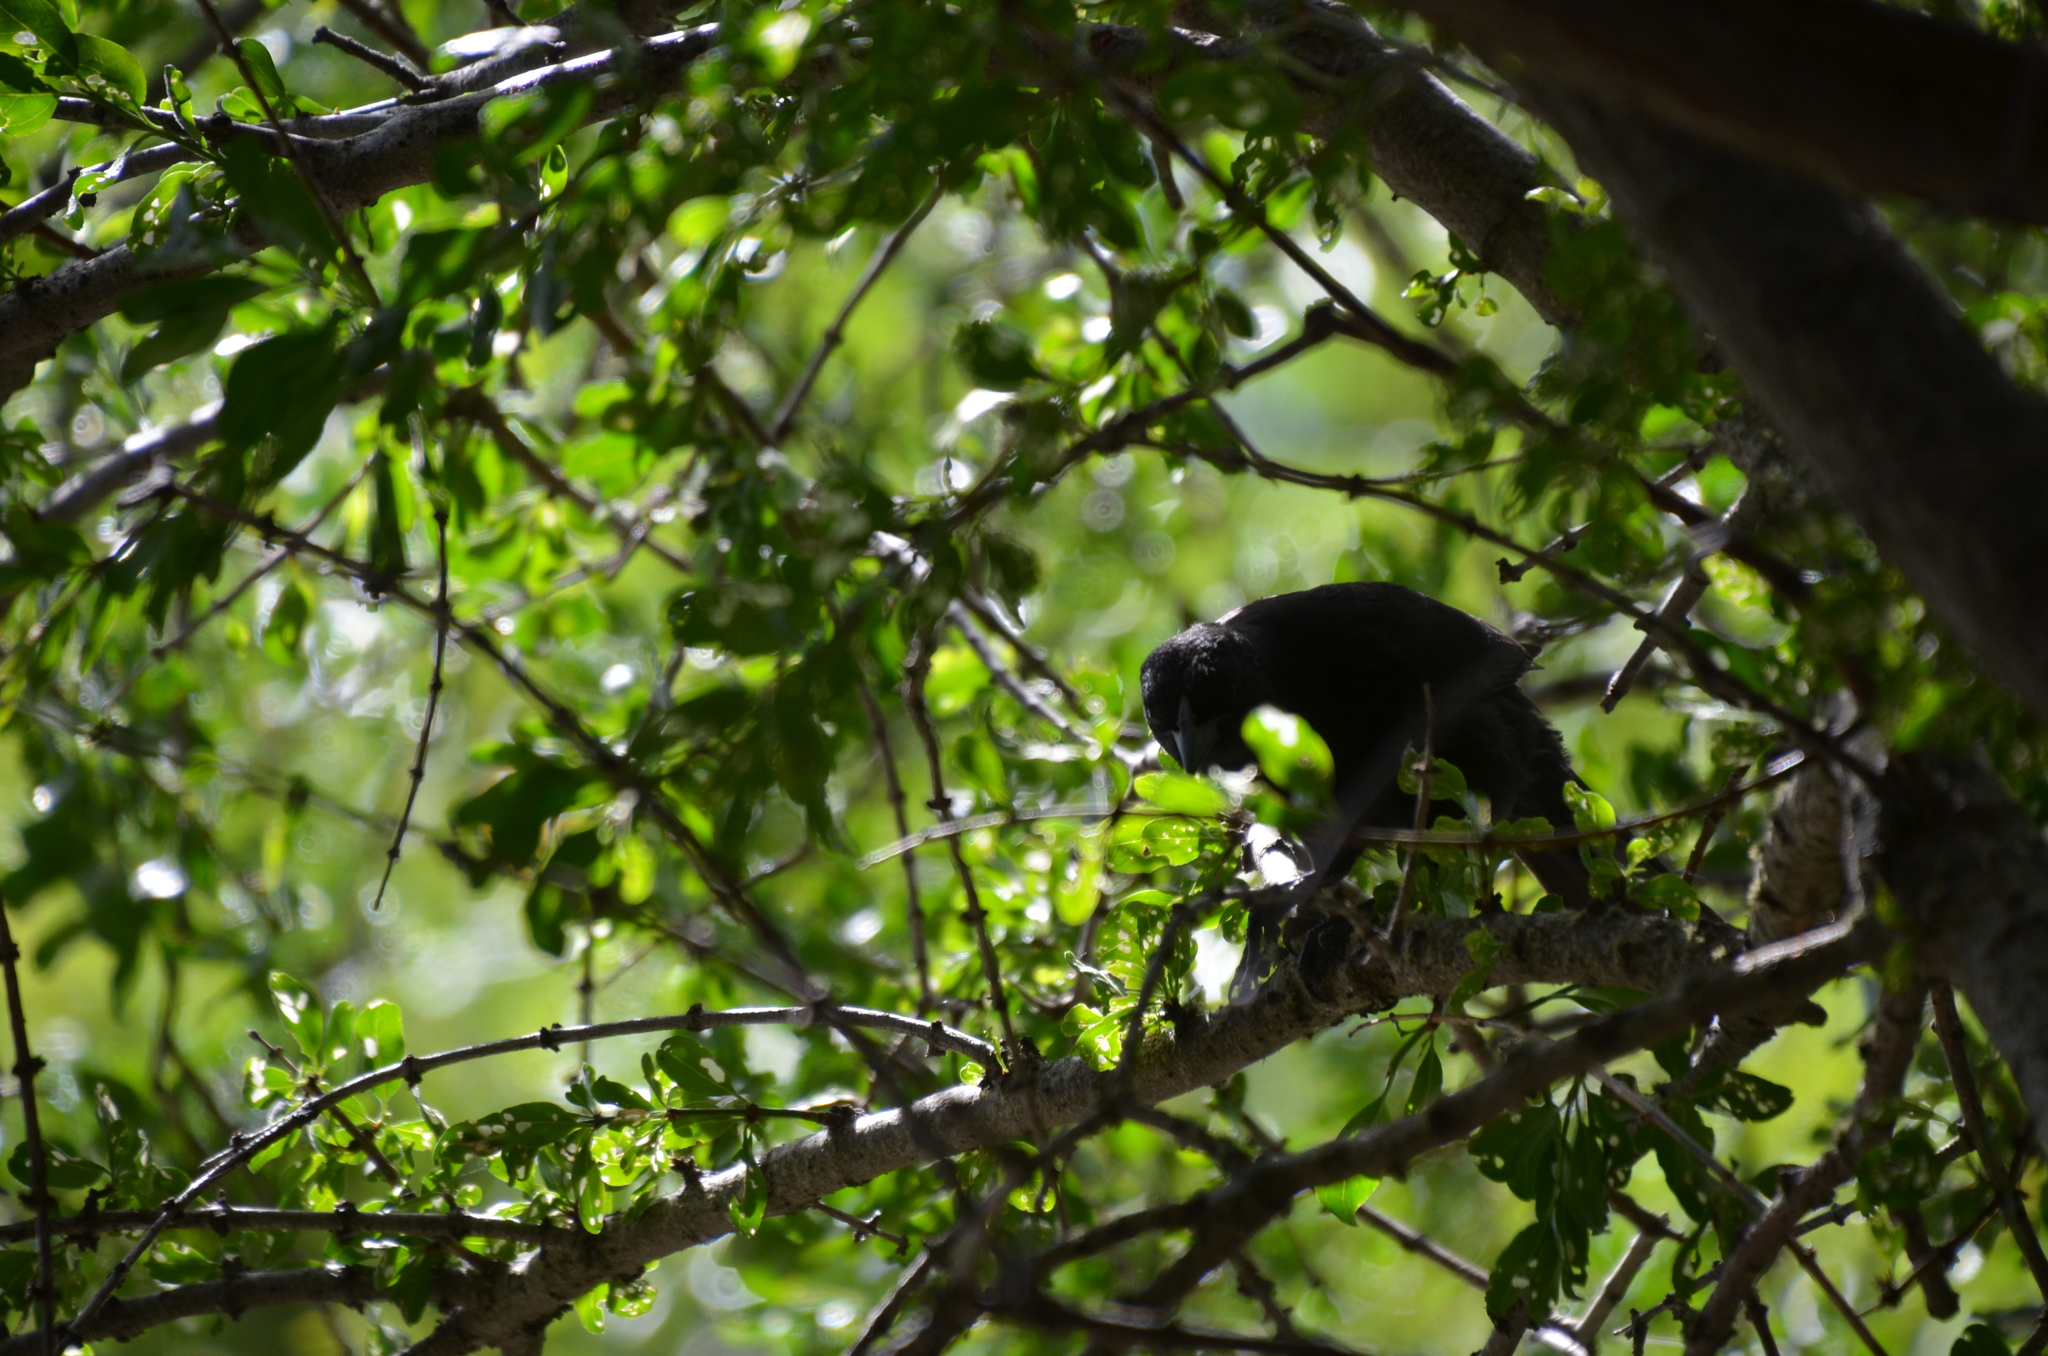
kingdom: Animalia
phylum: Chordata
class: Aves
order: Passeriformes
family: Icteridae
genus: Curaeus
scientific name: Curaeus curaeus
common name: Austral blackbird
